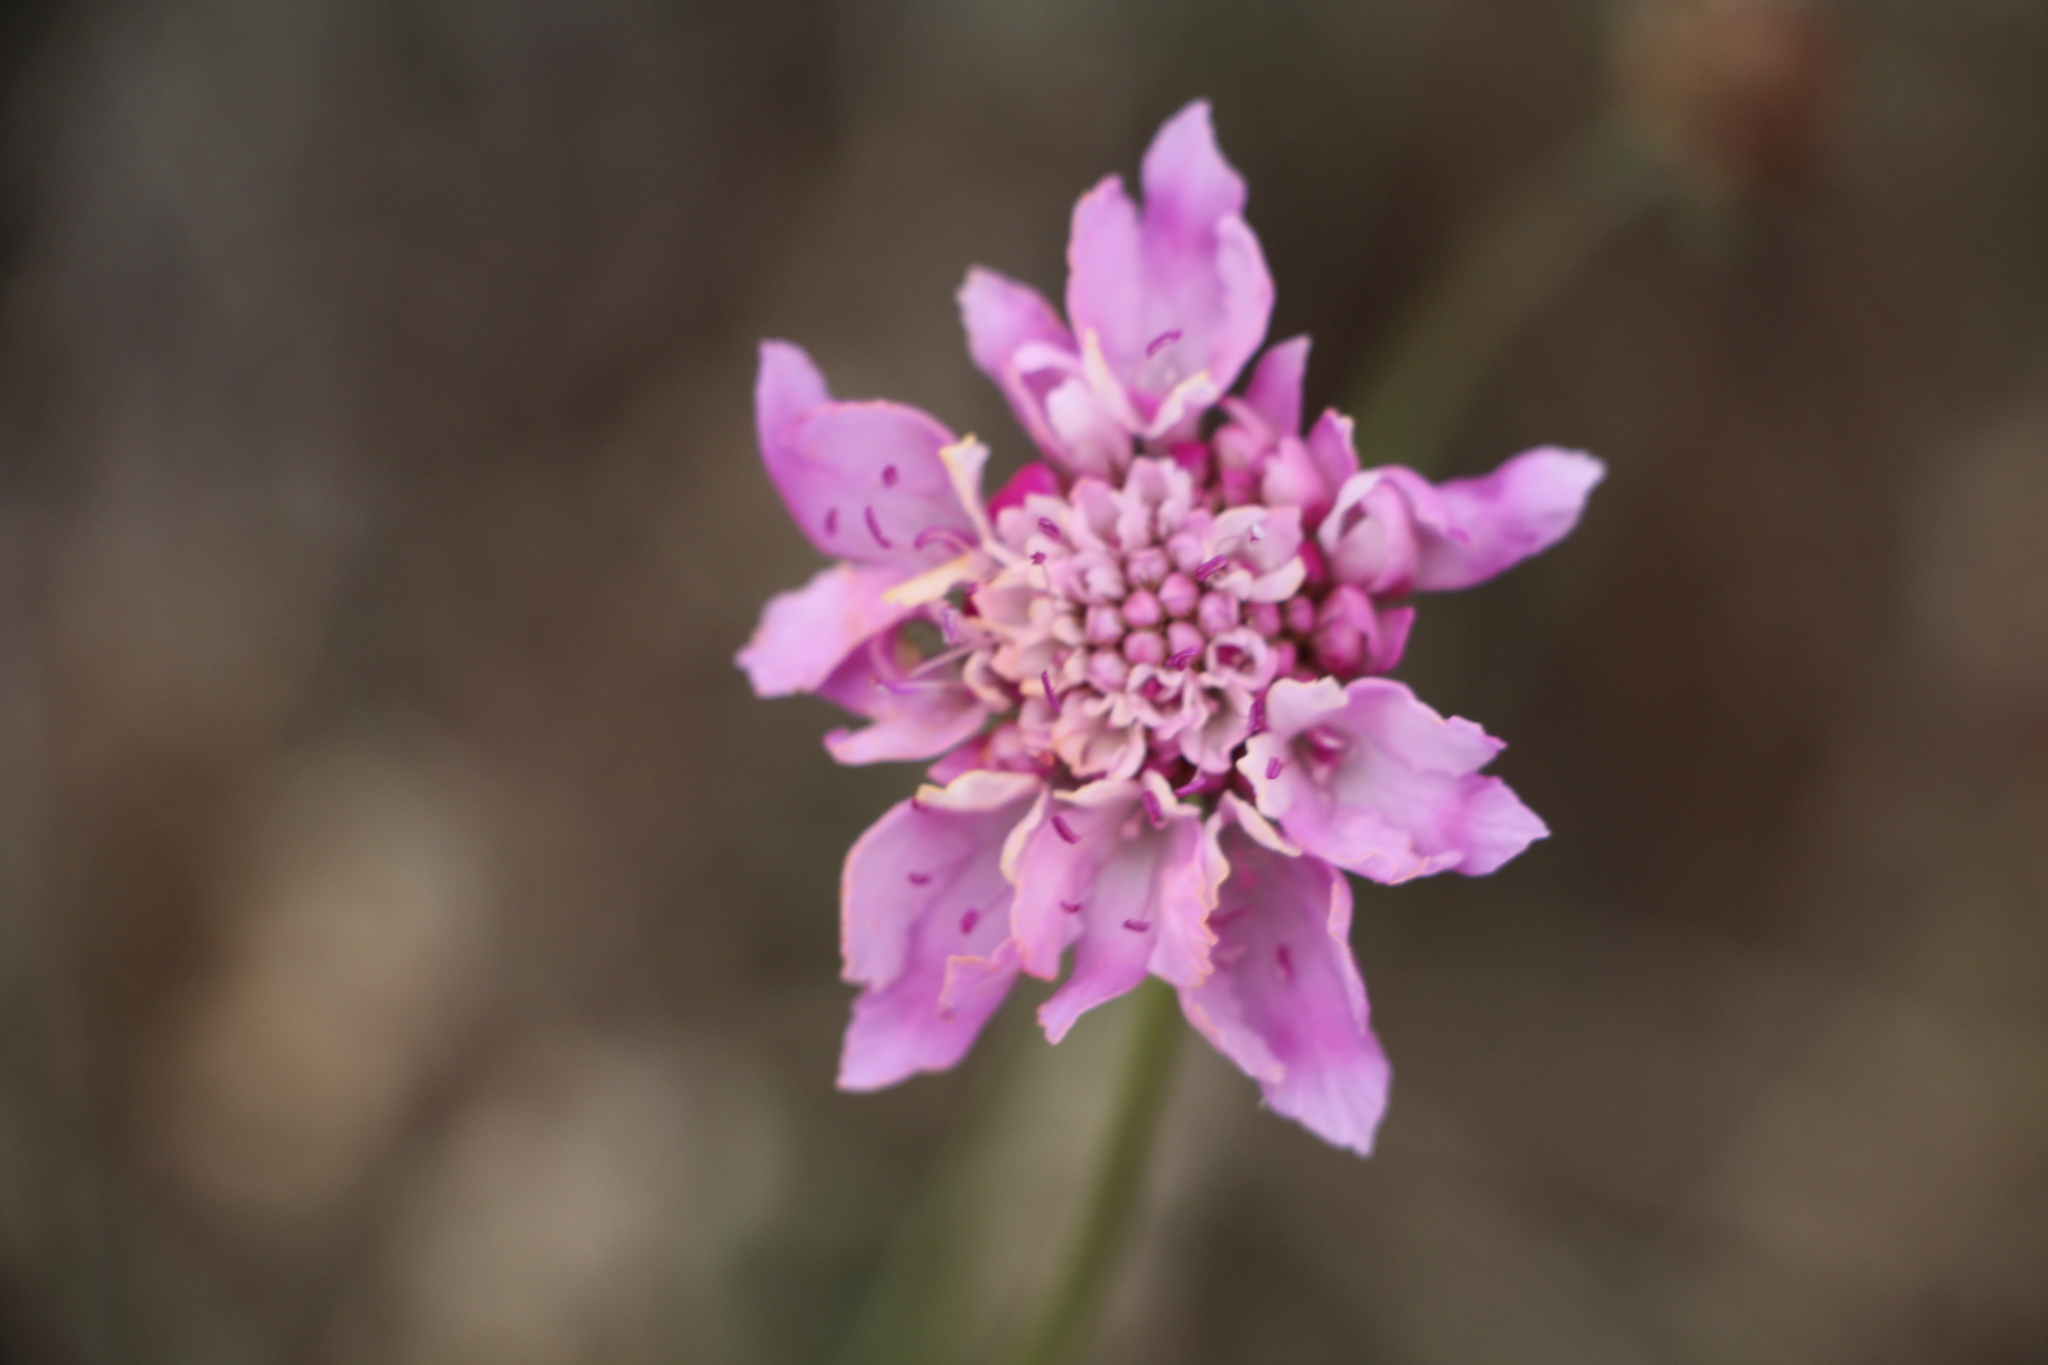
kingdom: Plantae
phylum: Tracheophyta
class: Magnoliopsida
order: Dipsacales
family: Caprifoliaceae
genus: Sixalix
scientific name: Sixalix atropurpurea
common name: Sweet scabious
